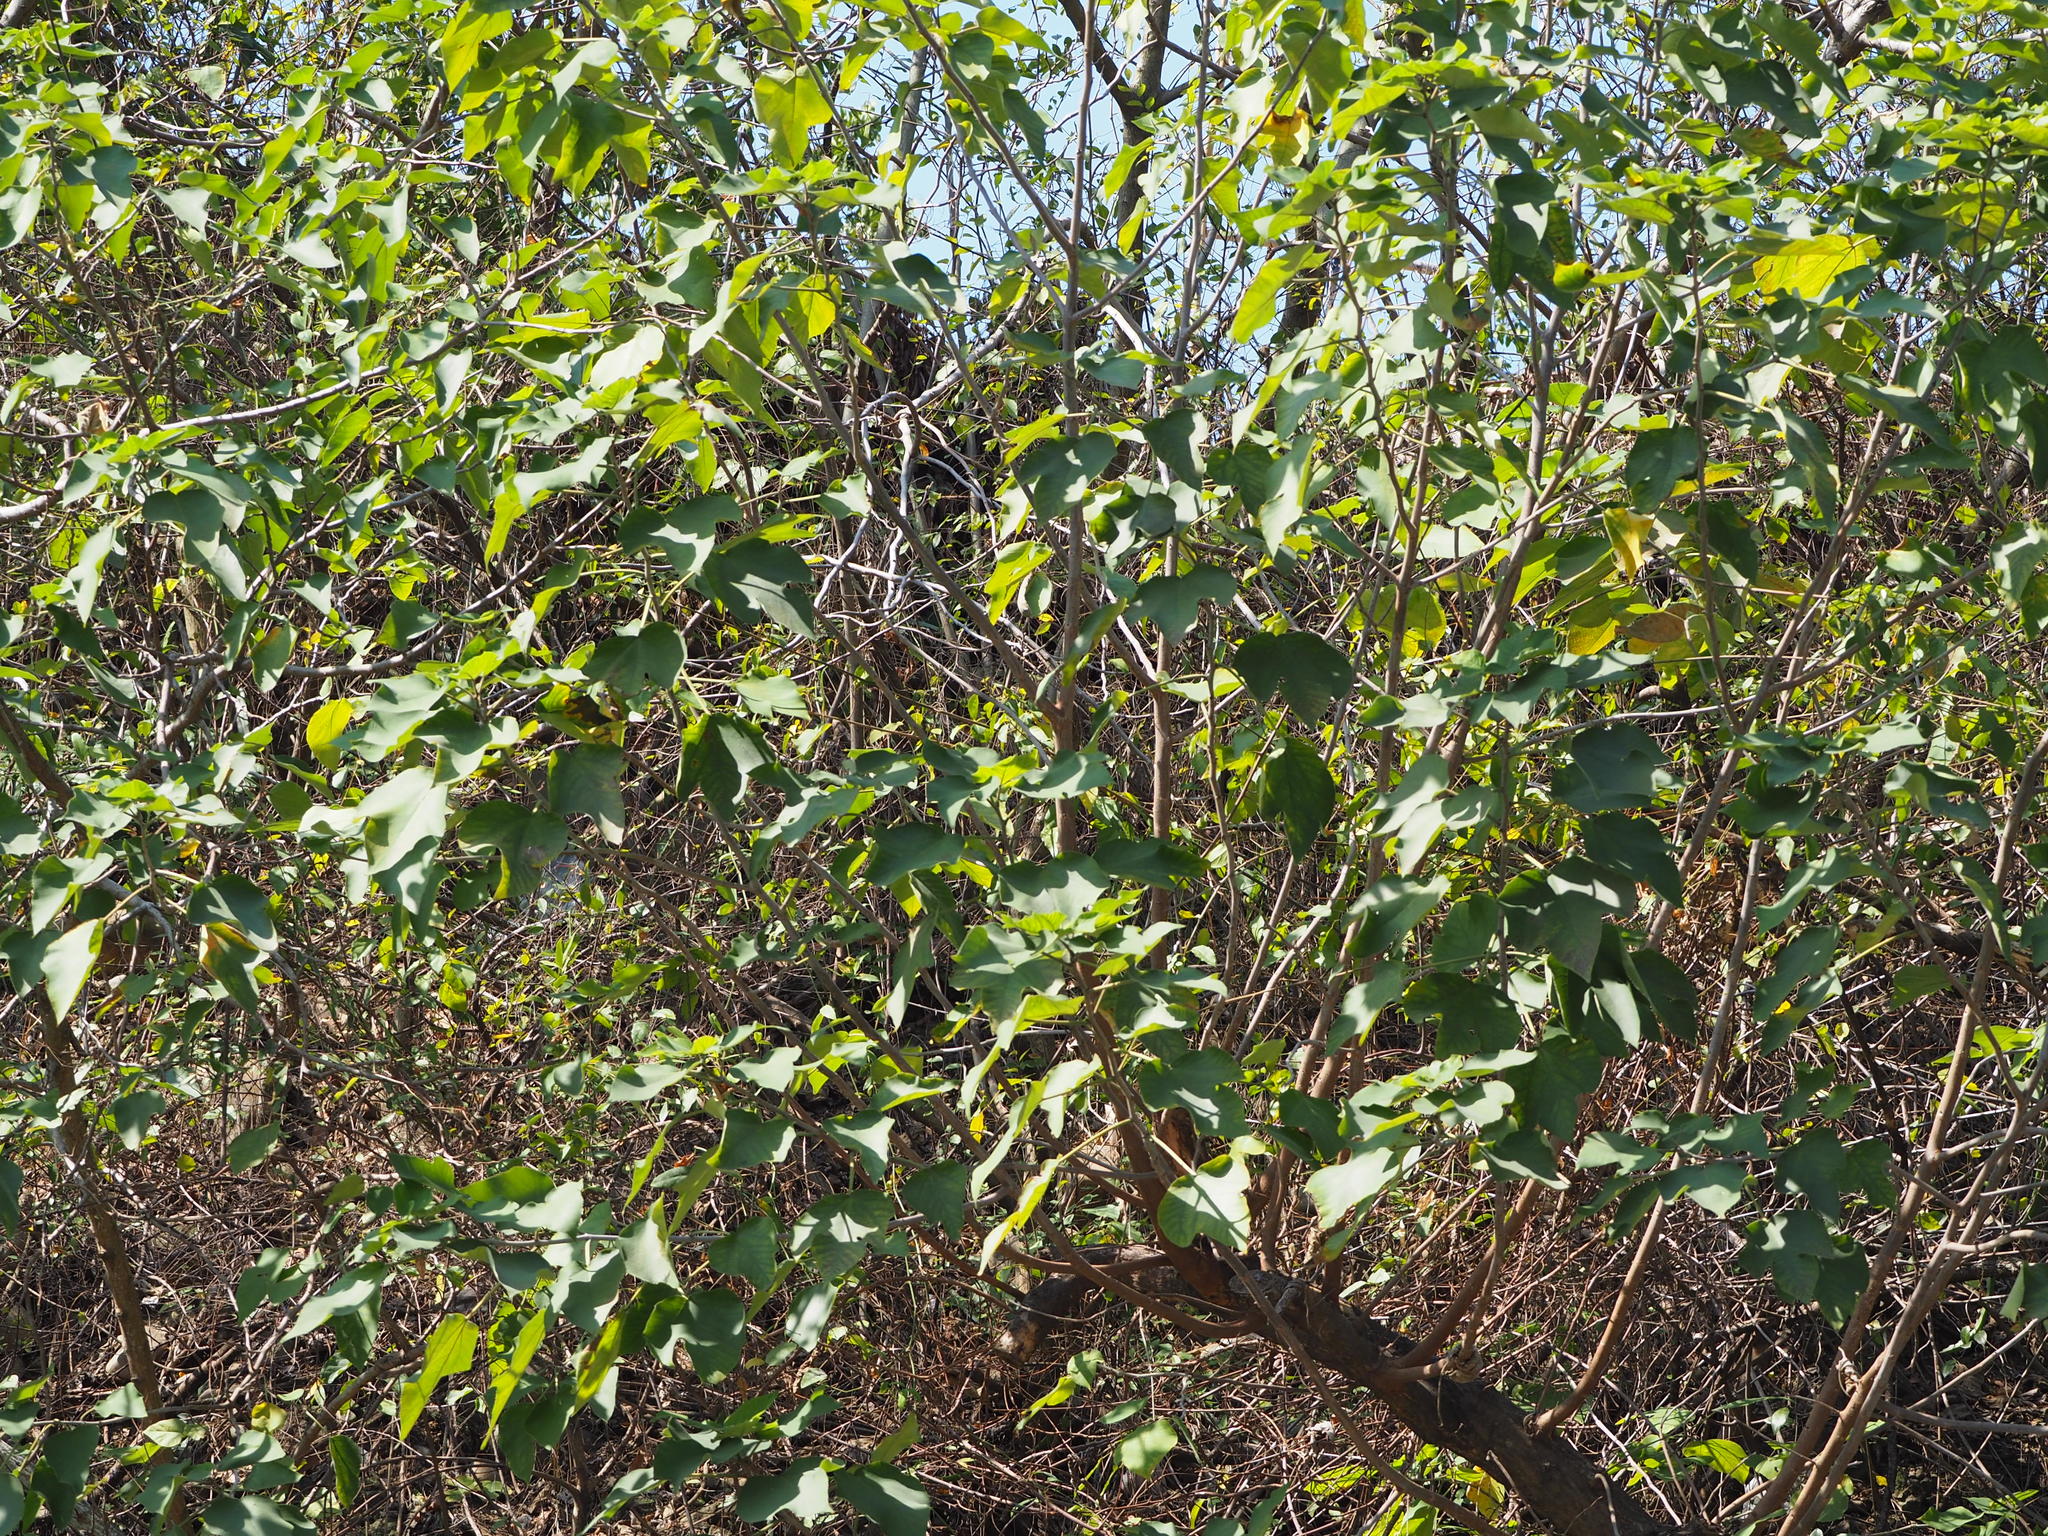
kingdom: Plantae
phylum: Tracheophyta
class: Magnoliopsida
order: Rosales
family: Moraceae
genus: Broussonetia
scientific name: Broussonetia papyrifera
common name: Paper mulberry
